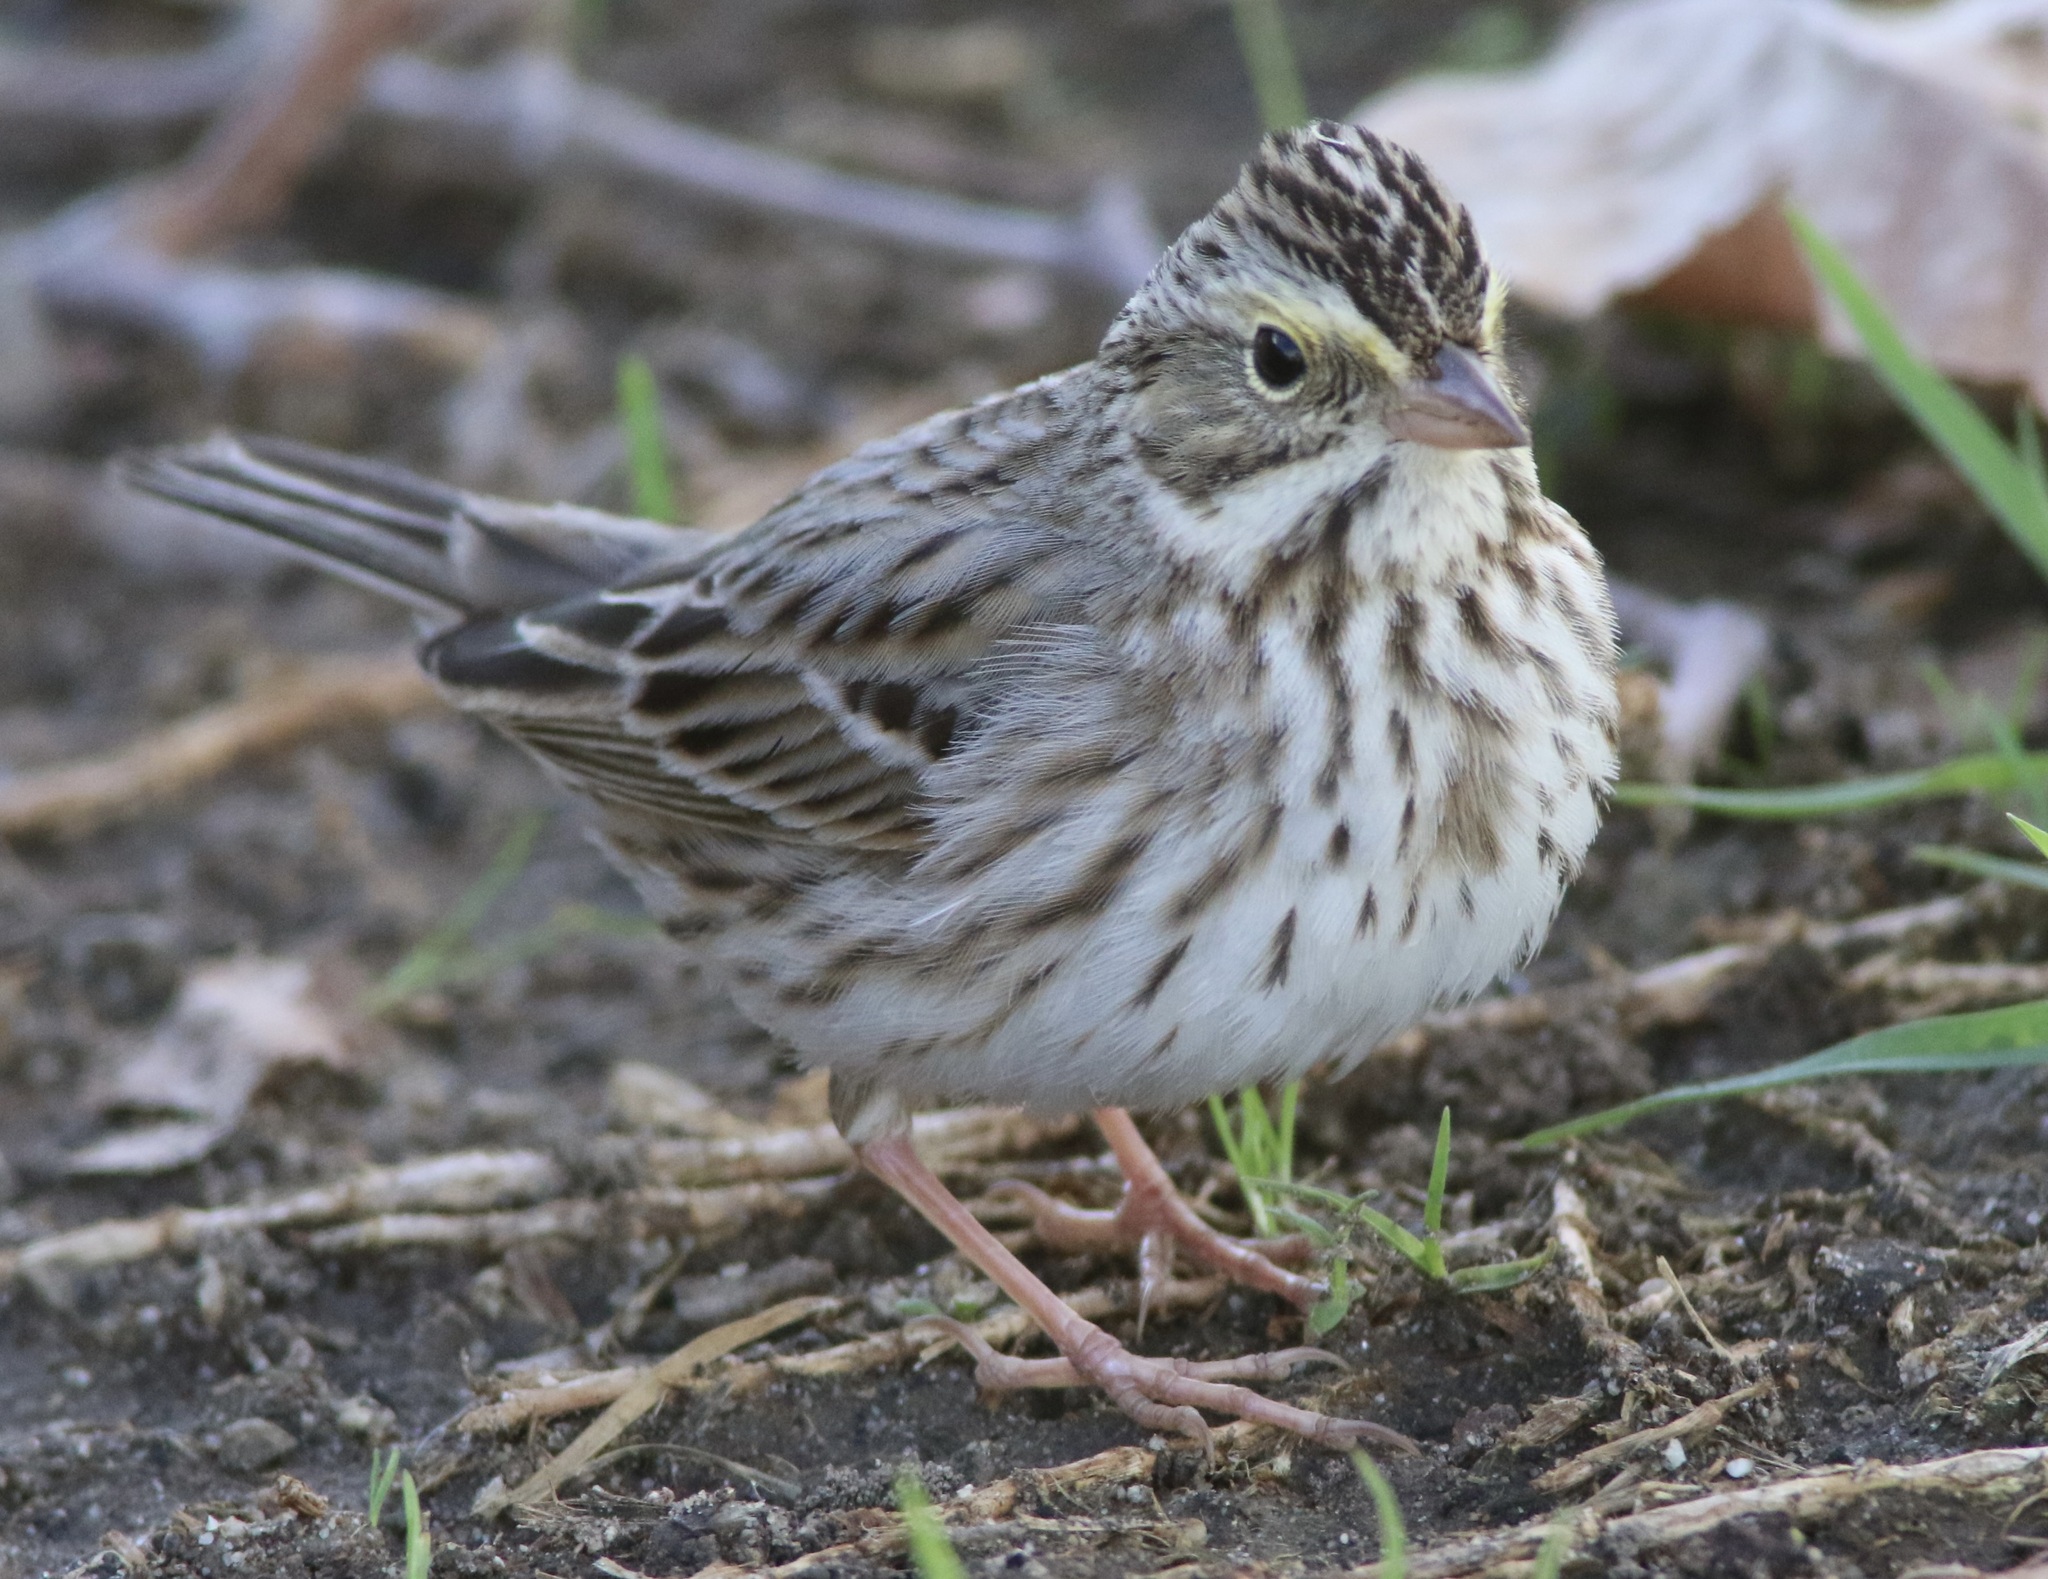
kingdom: Animalia
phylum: Chordata
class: Aves
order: Passeriformes
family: Passerellidae
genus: Passerculus
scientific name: Passerculus sandwichensis
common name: Savannah sparrow
